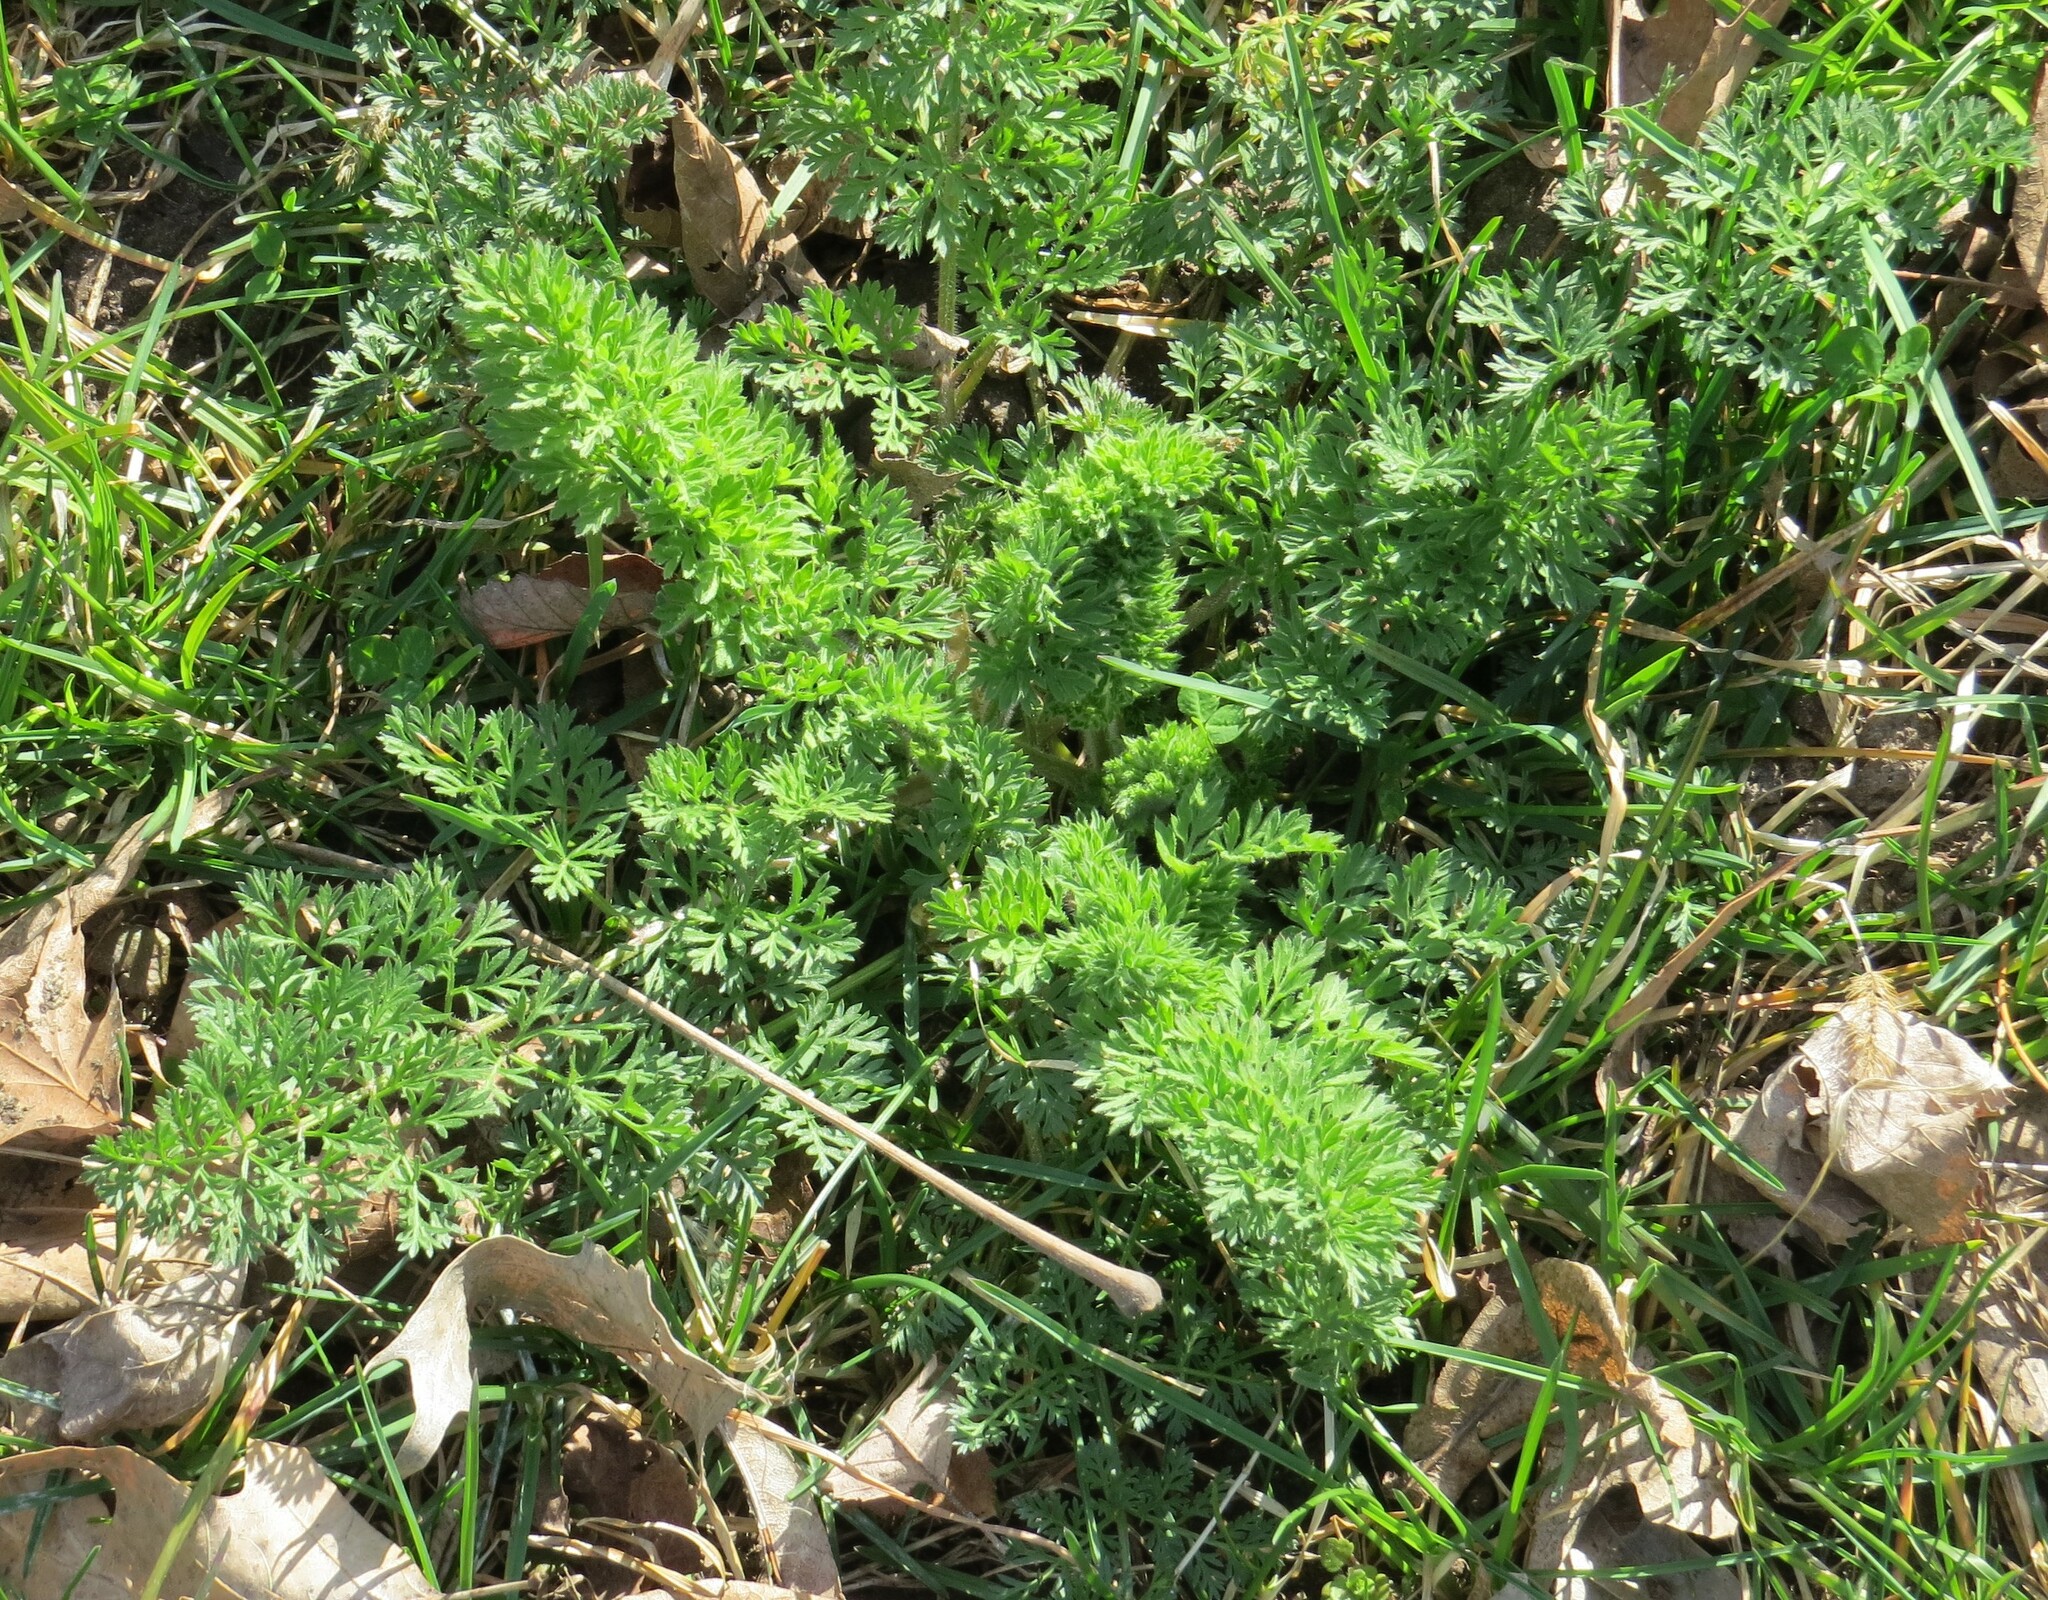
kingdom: Plantae
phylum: Tracheophyta
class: Magnoliopsida
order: Apiales
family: Apiaceae
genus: Daucus
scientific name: Daucus carota
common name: Wild carrot
